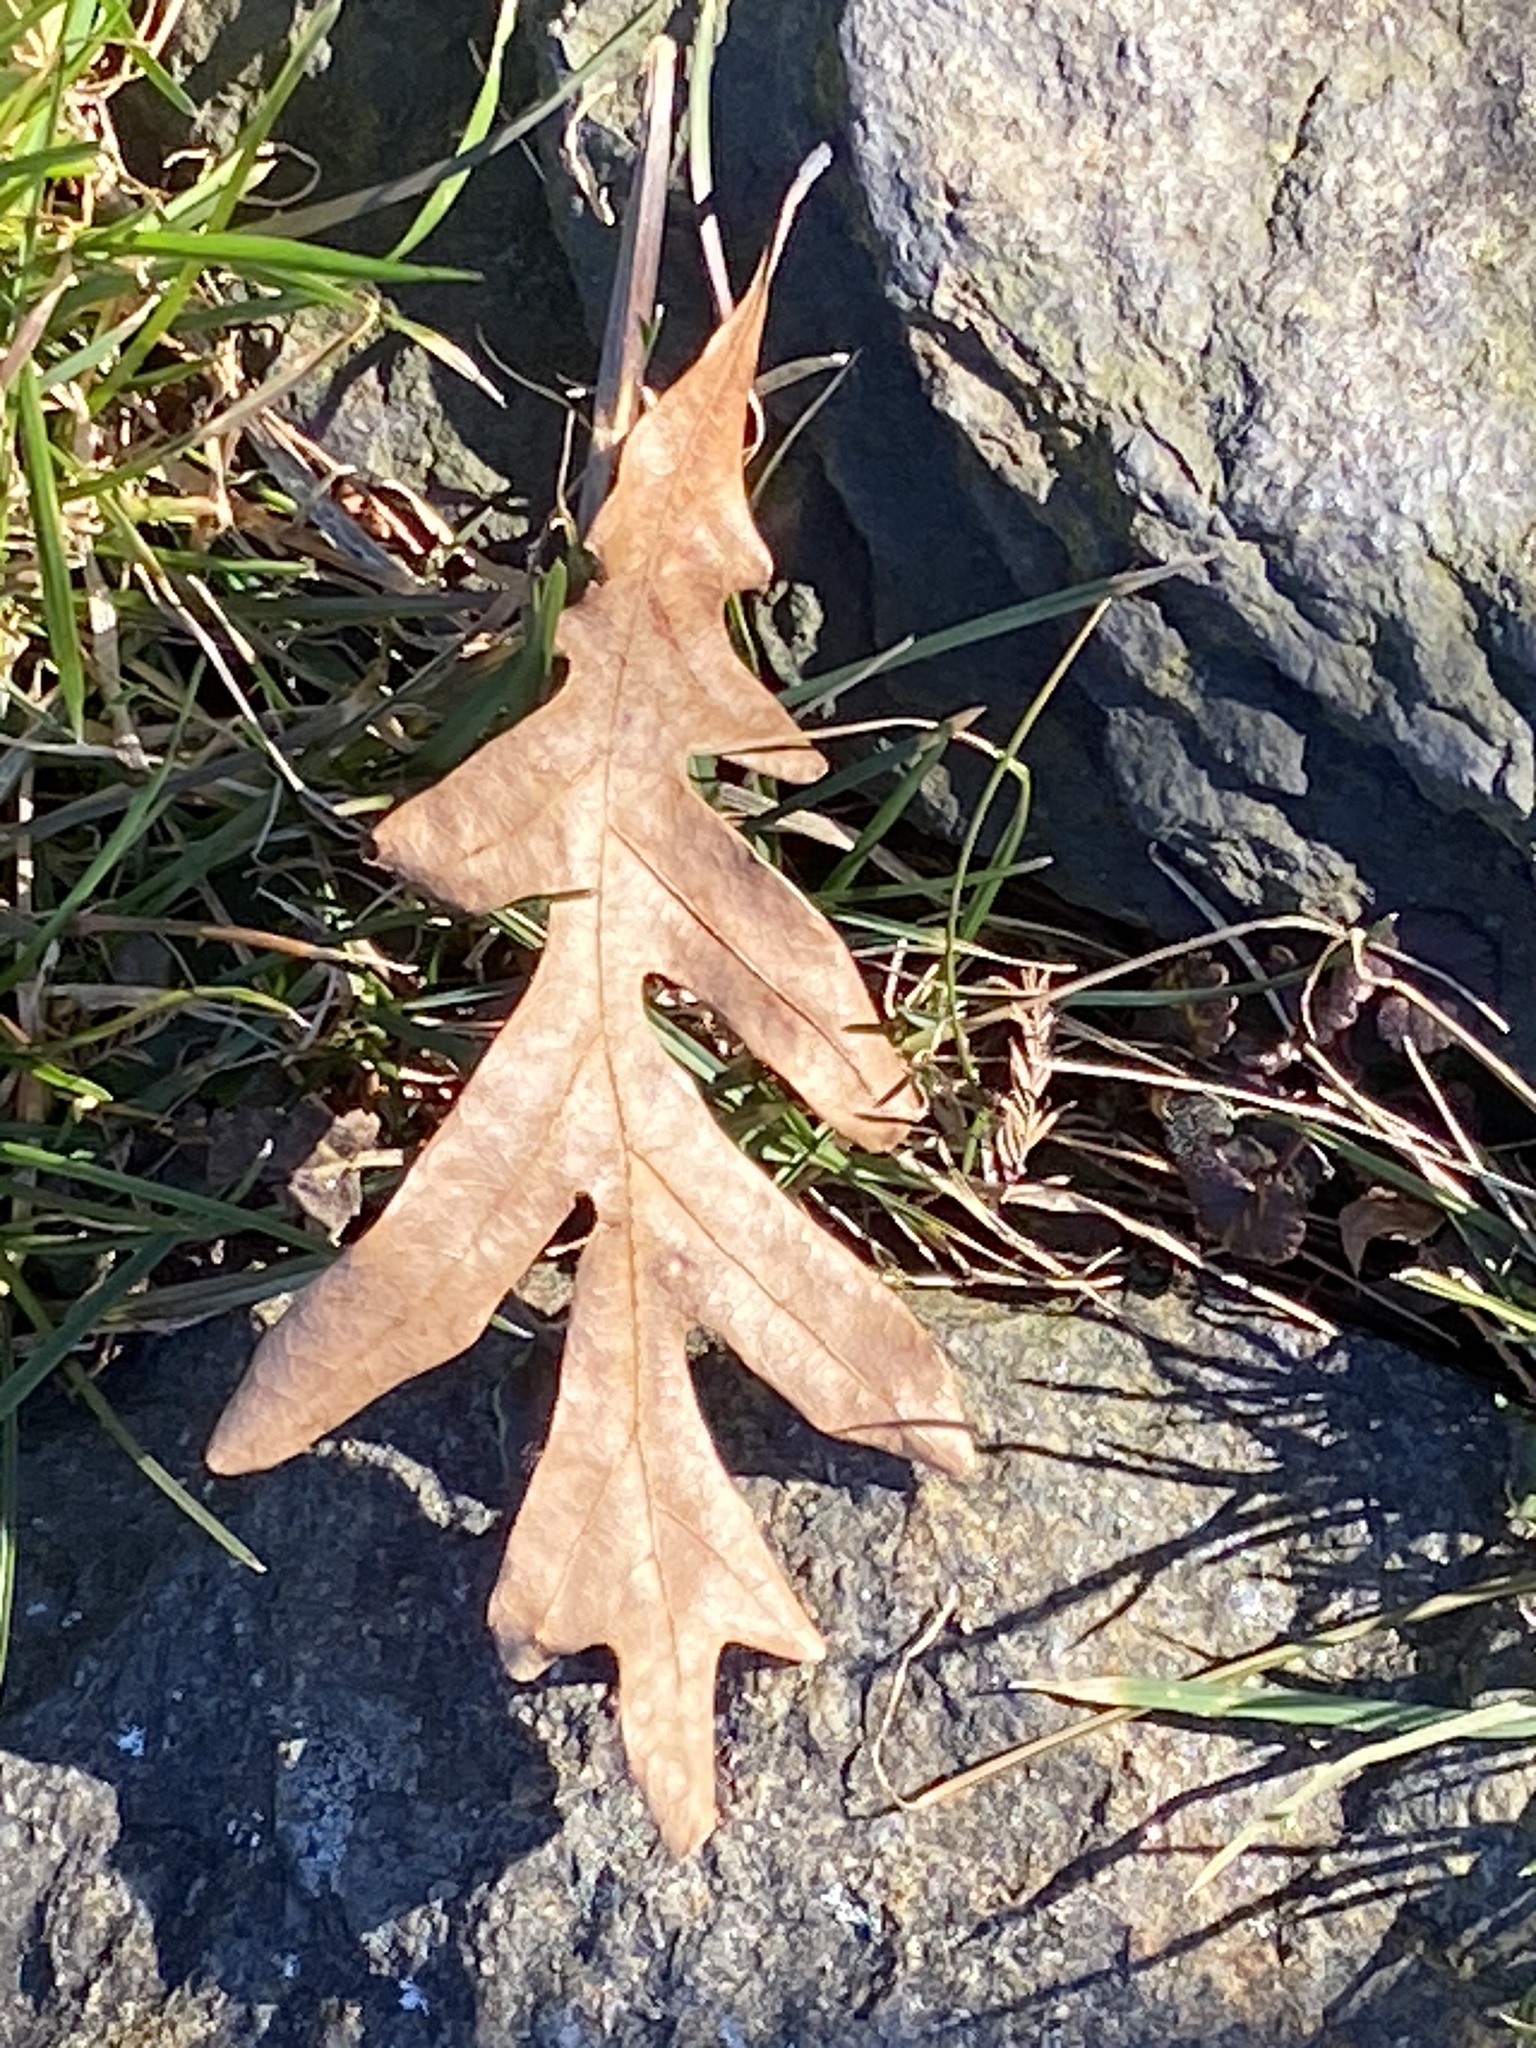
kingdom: Plantae
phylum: Tracheophyta
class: Magnoliopsida
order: Fagales
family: Fagaceae
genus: Quercus
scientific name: Quercus alba
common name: White oak
